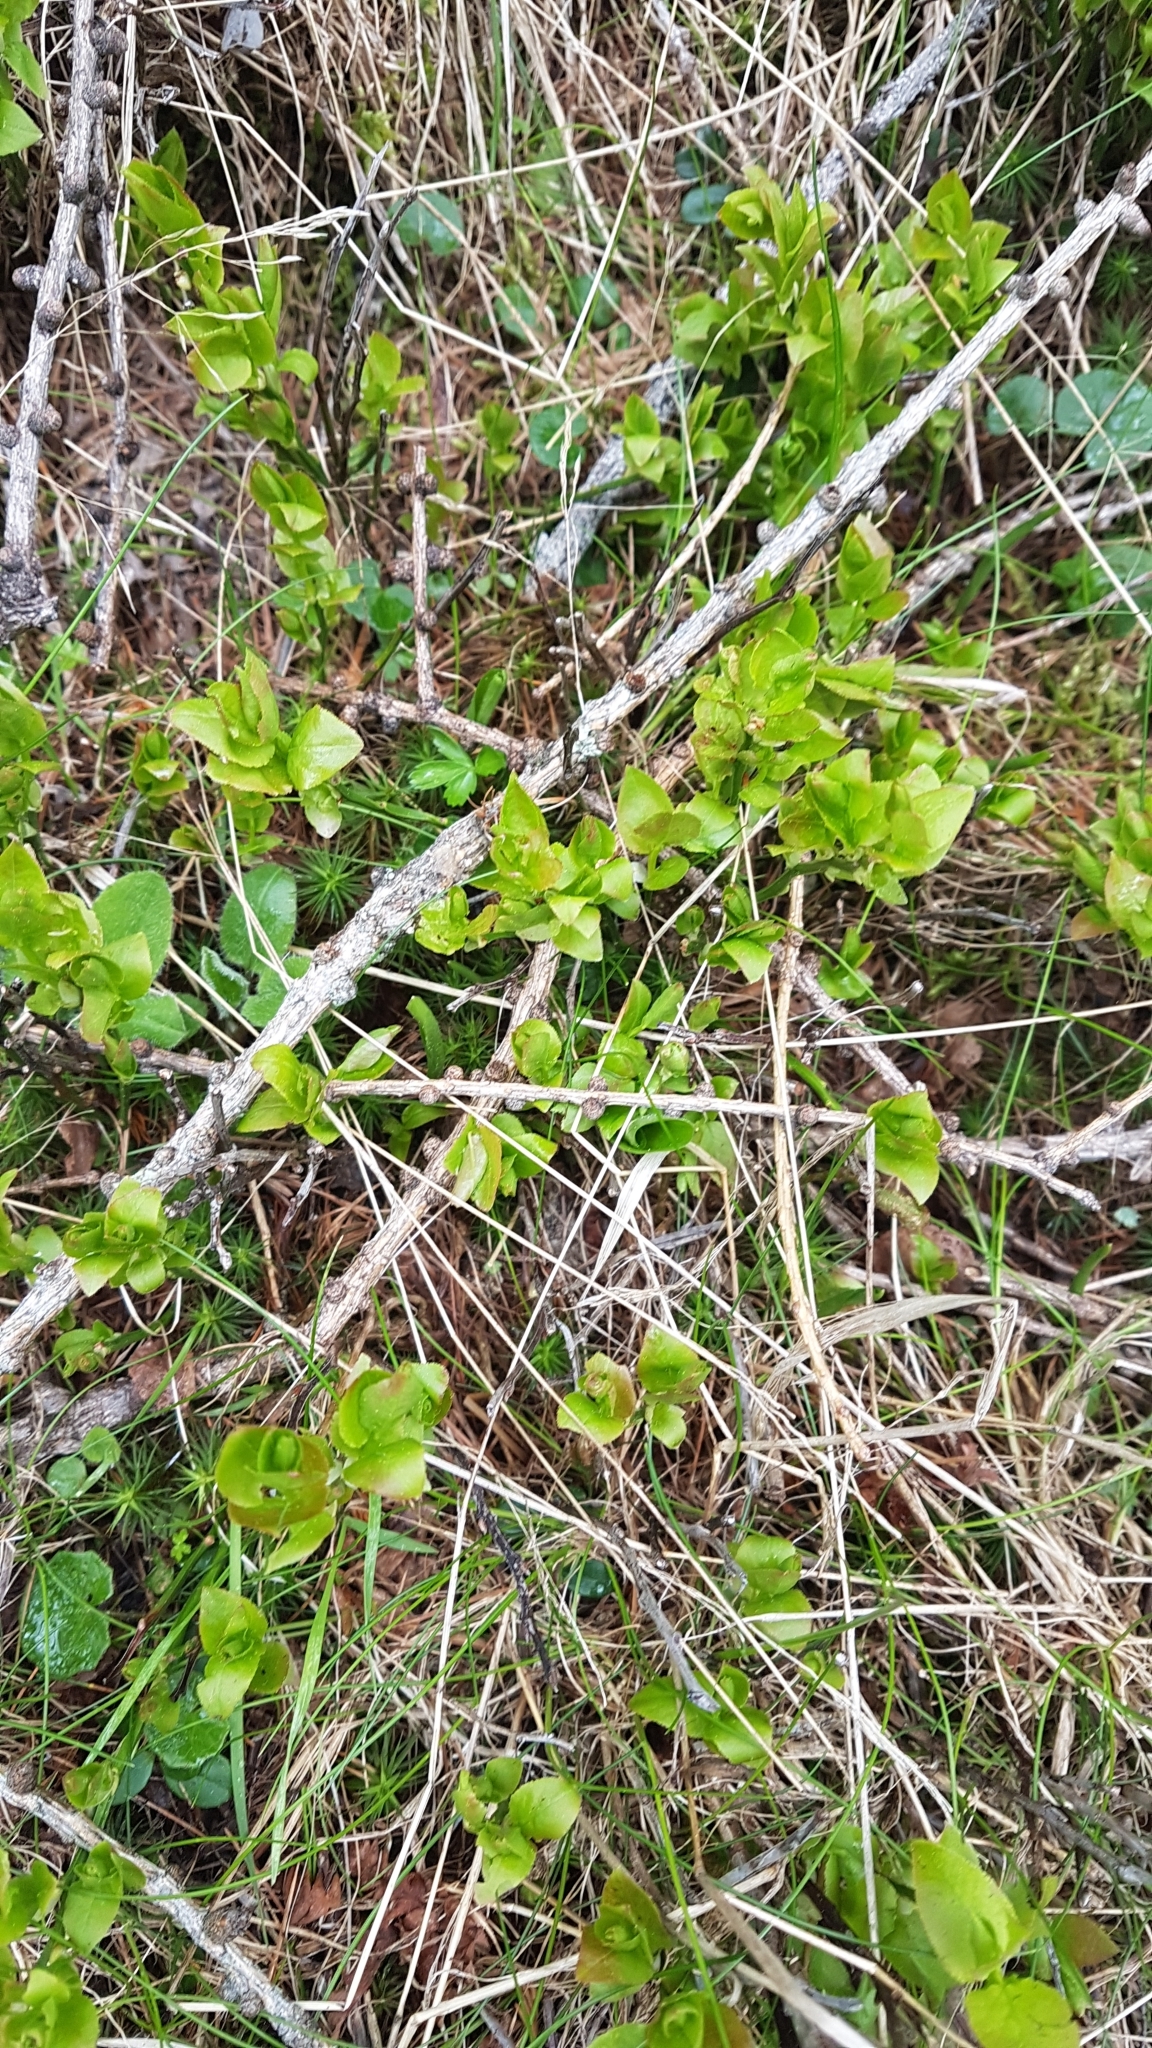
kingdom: Plantae
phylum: Tracheophyta
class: Magnoliopsida
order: Ericales
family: Ericaceae
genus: Vaccinium
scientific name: Vaccinium myrtillus
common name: Bilberry
